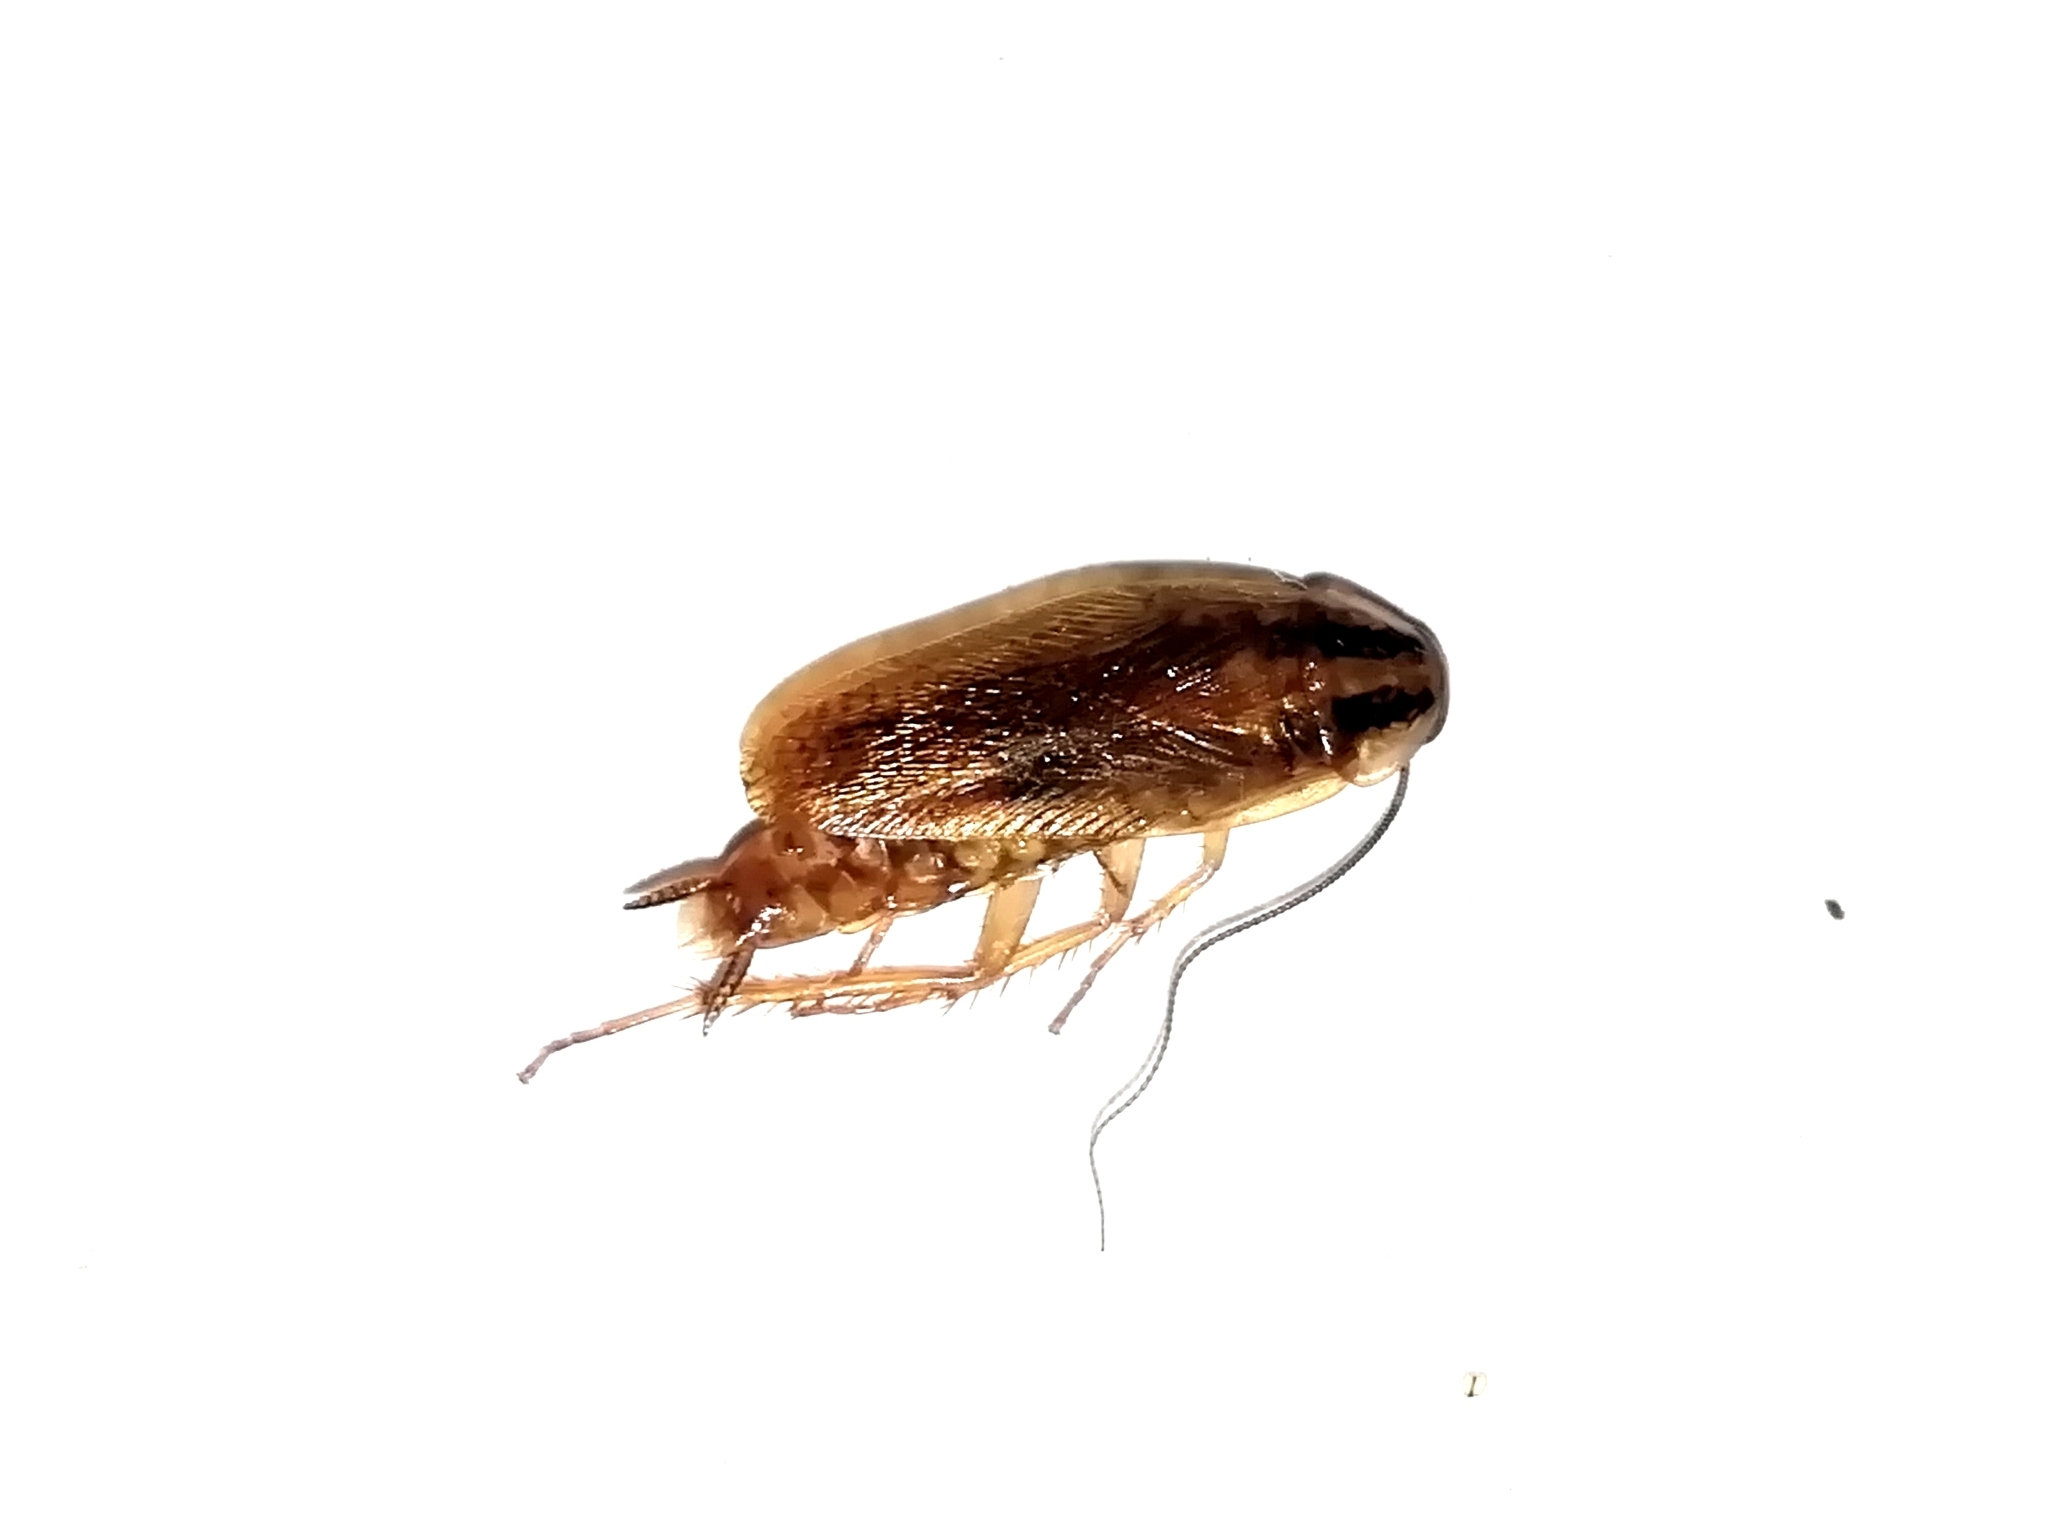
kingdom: Animalia
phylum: Arthropoda
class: Insecta
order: Blattodea
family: Ectobiidae
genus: Blattella
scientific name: Blattella germanica
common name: German cockroach
